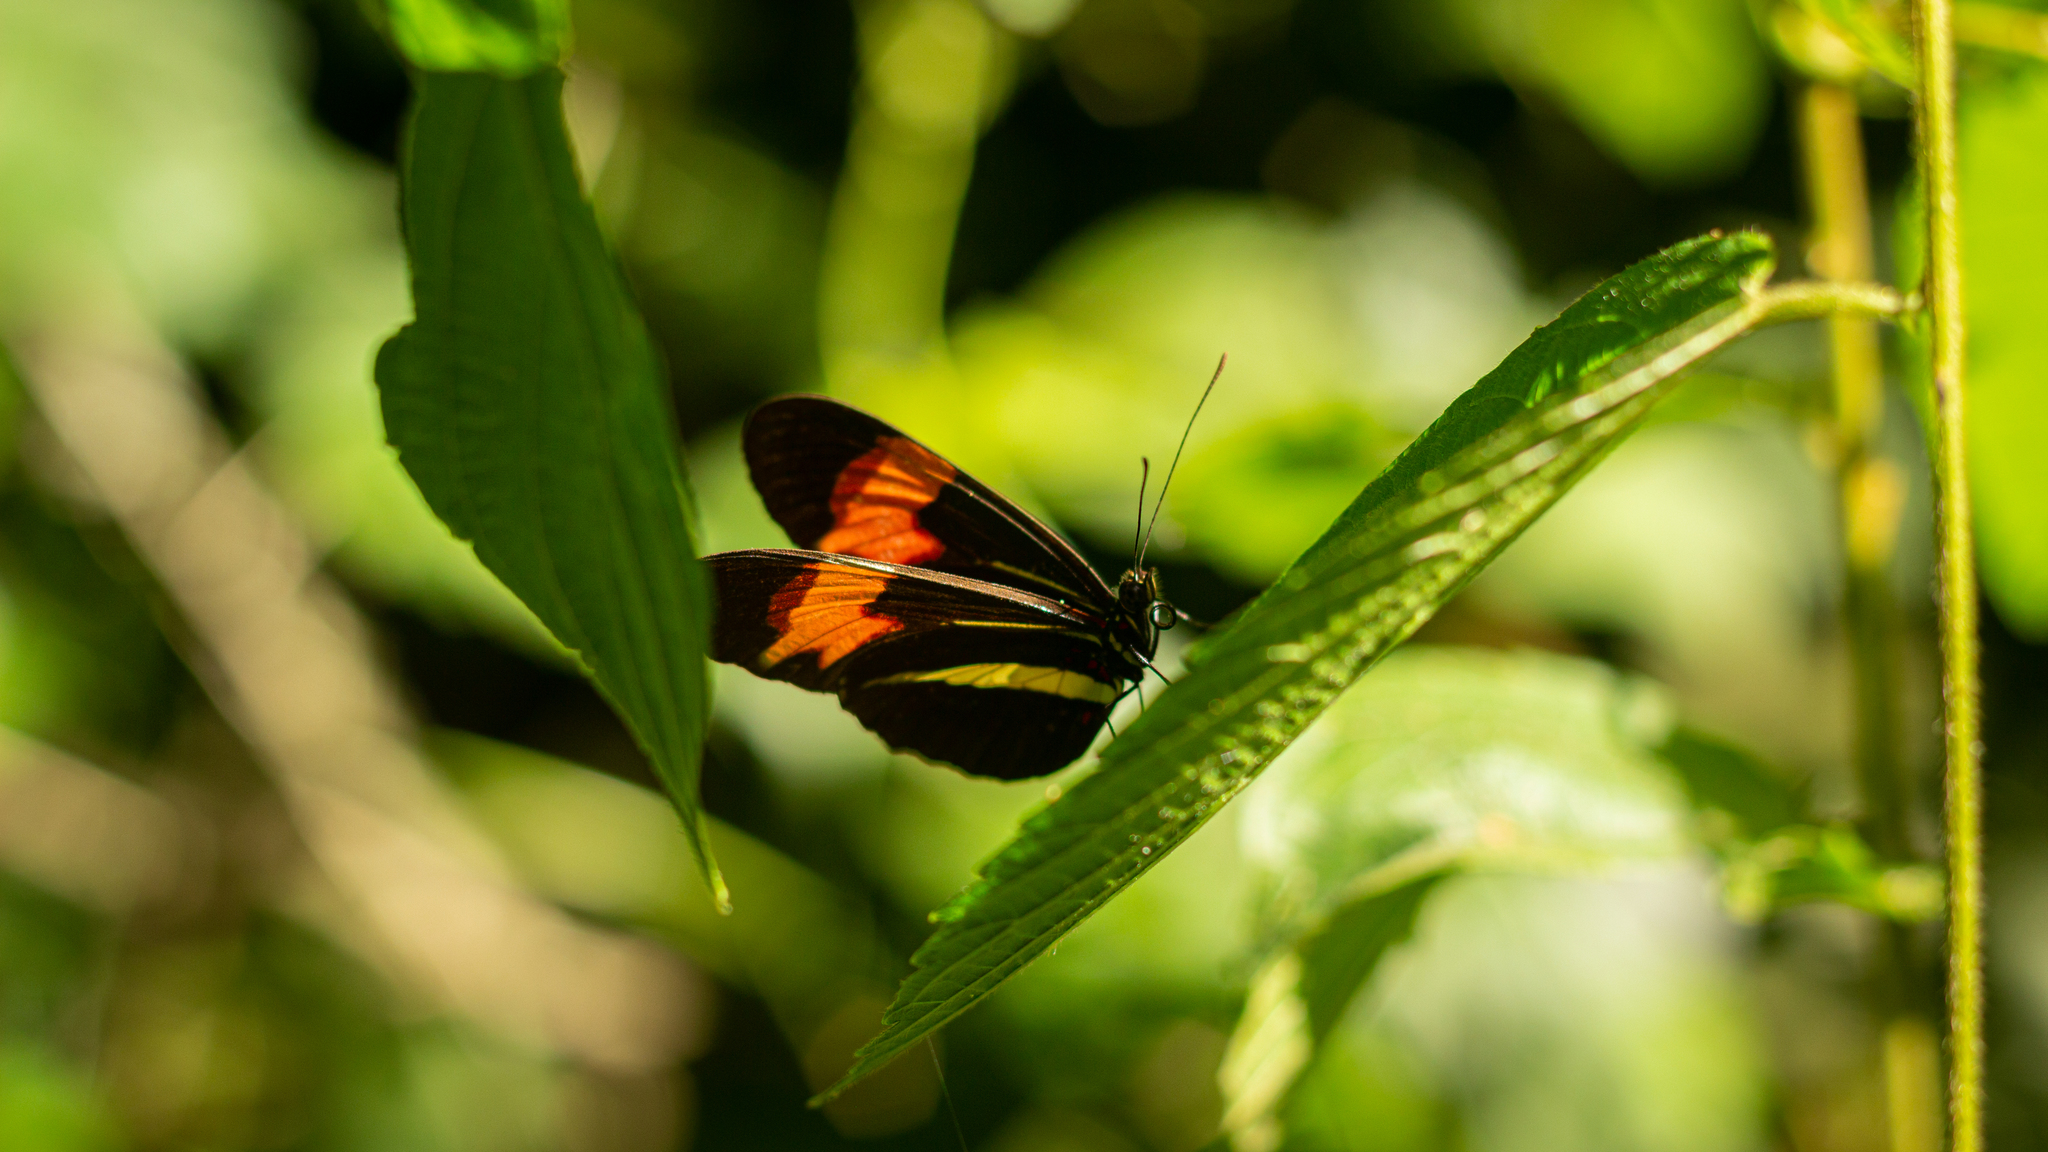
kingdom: Animalia
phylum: Arthropoda
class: Insecta
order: Lepidoptera
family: Nymphalidae
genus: Heliconius
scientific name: Heliconius erato
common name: Common patch longwing
